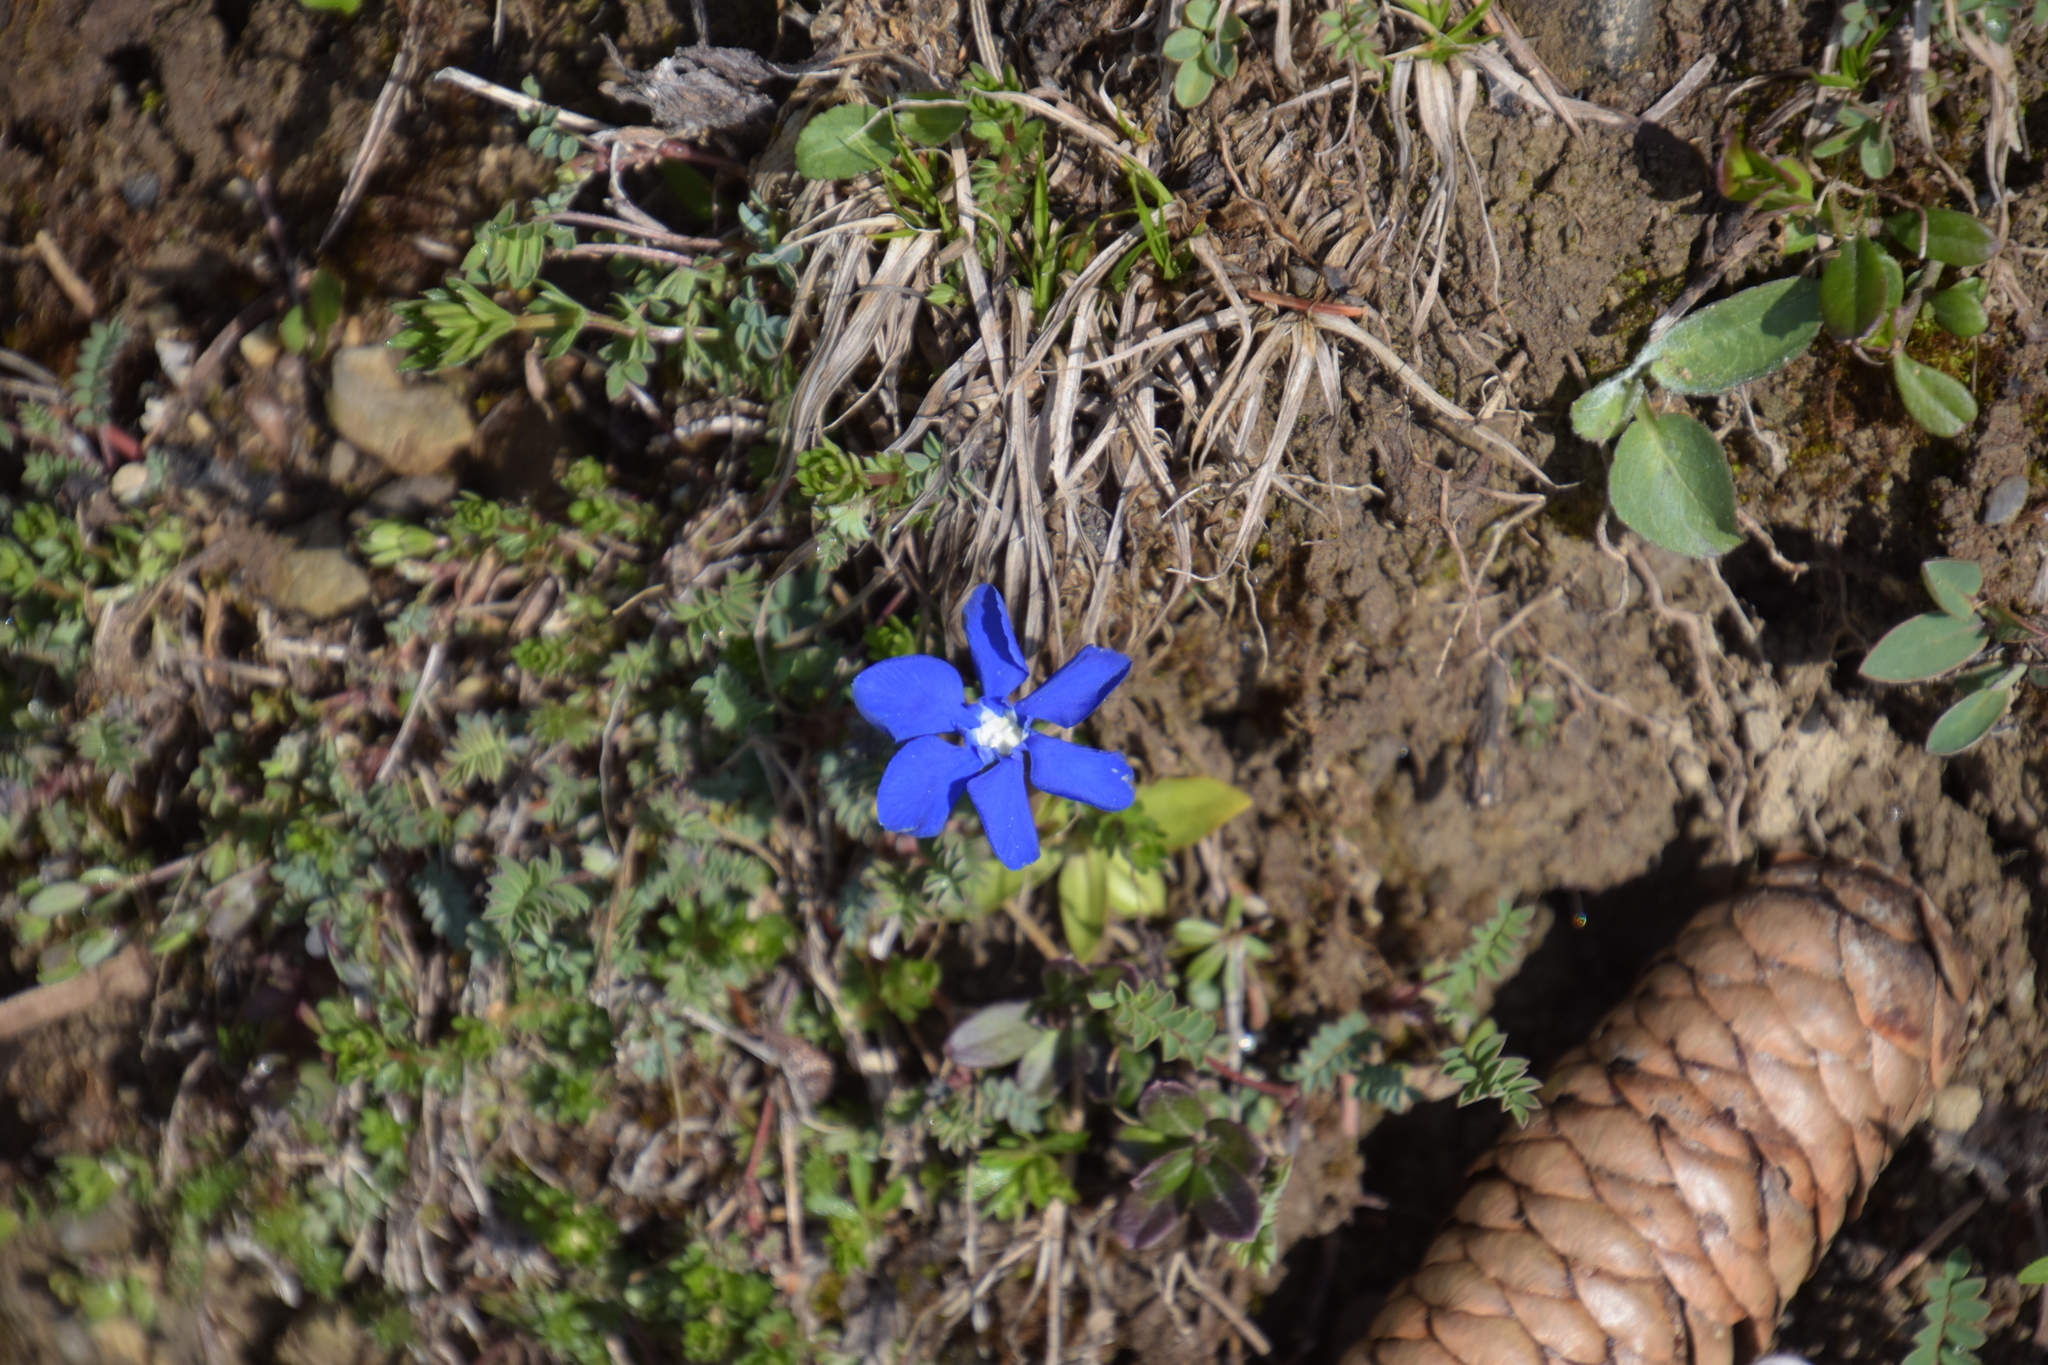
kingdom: Plantae
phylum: Tracheophyta
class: Magnoliopsida
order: Gentianales
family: Gentianaceae
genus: Gentiana
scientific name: Gentiana verna
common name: Spring gentian
